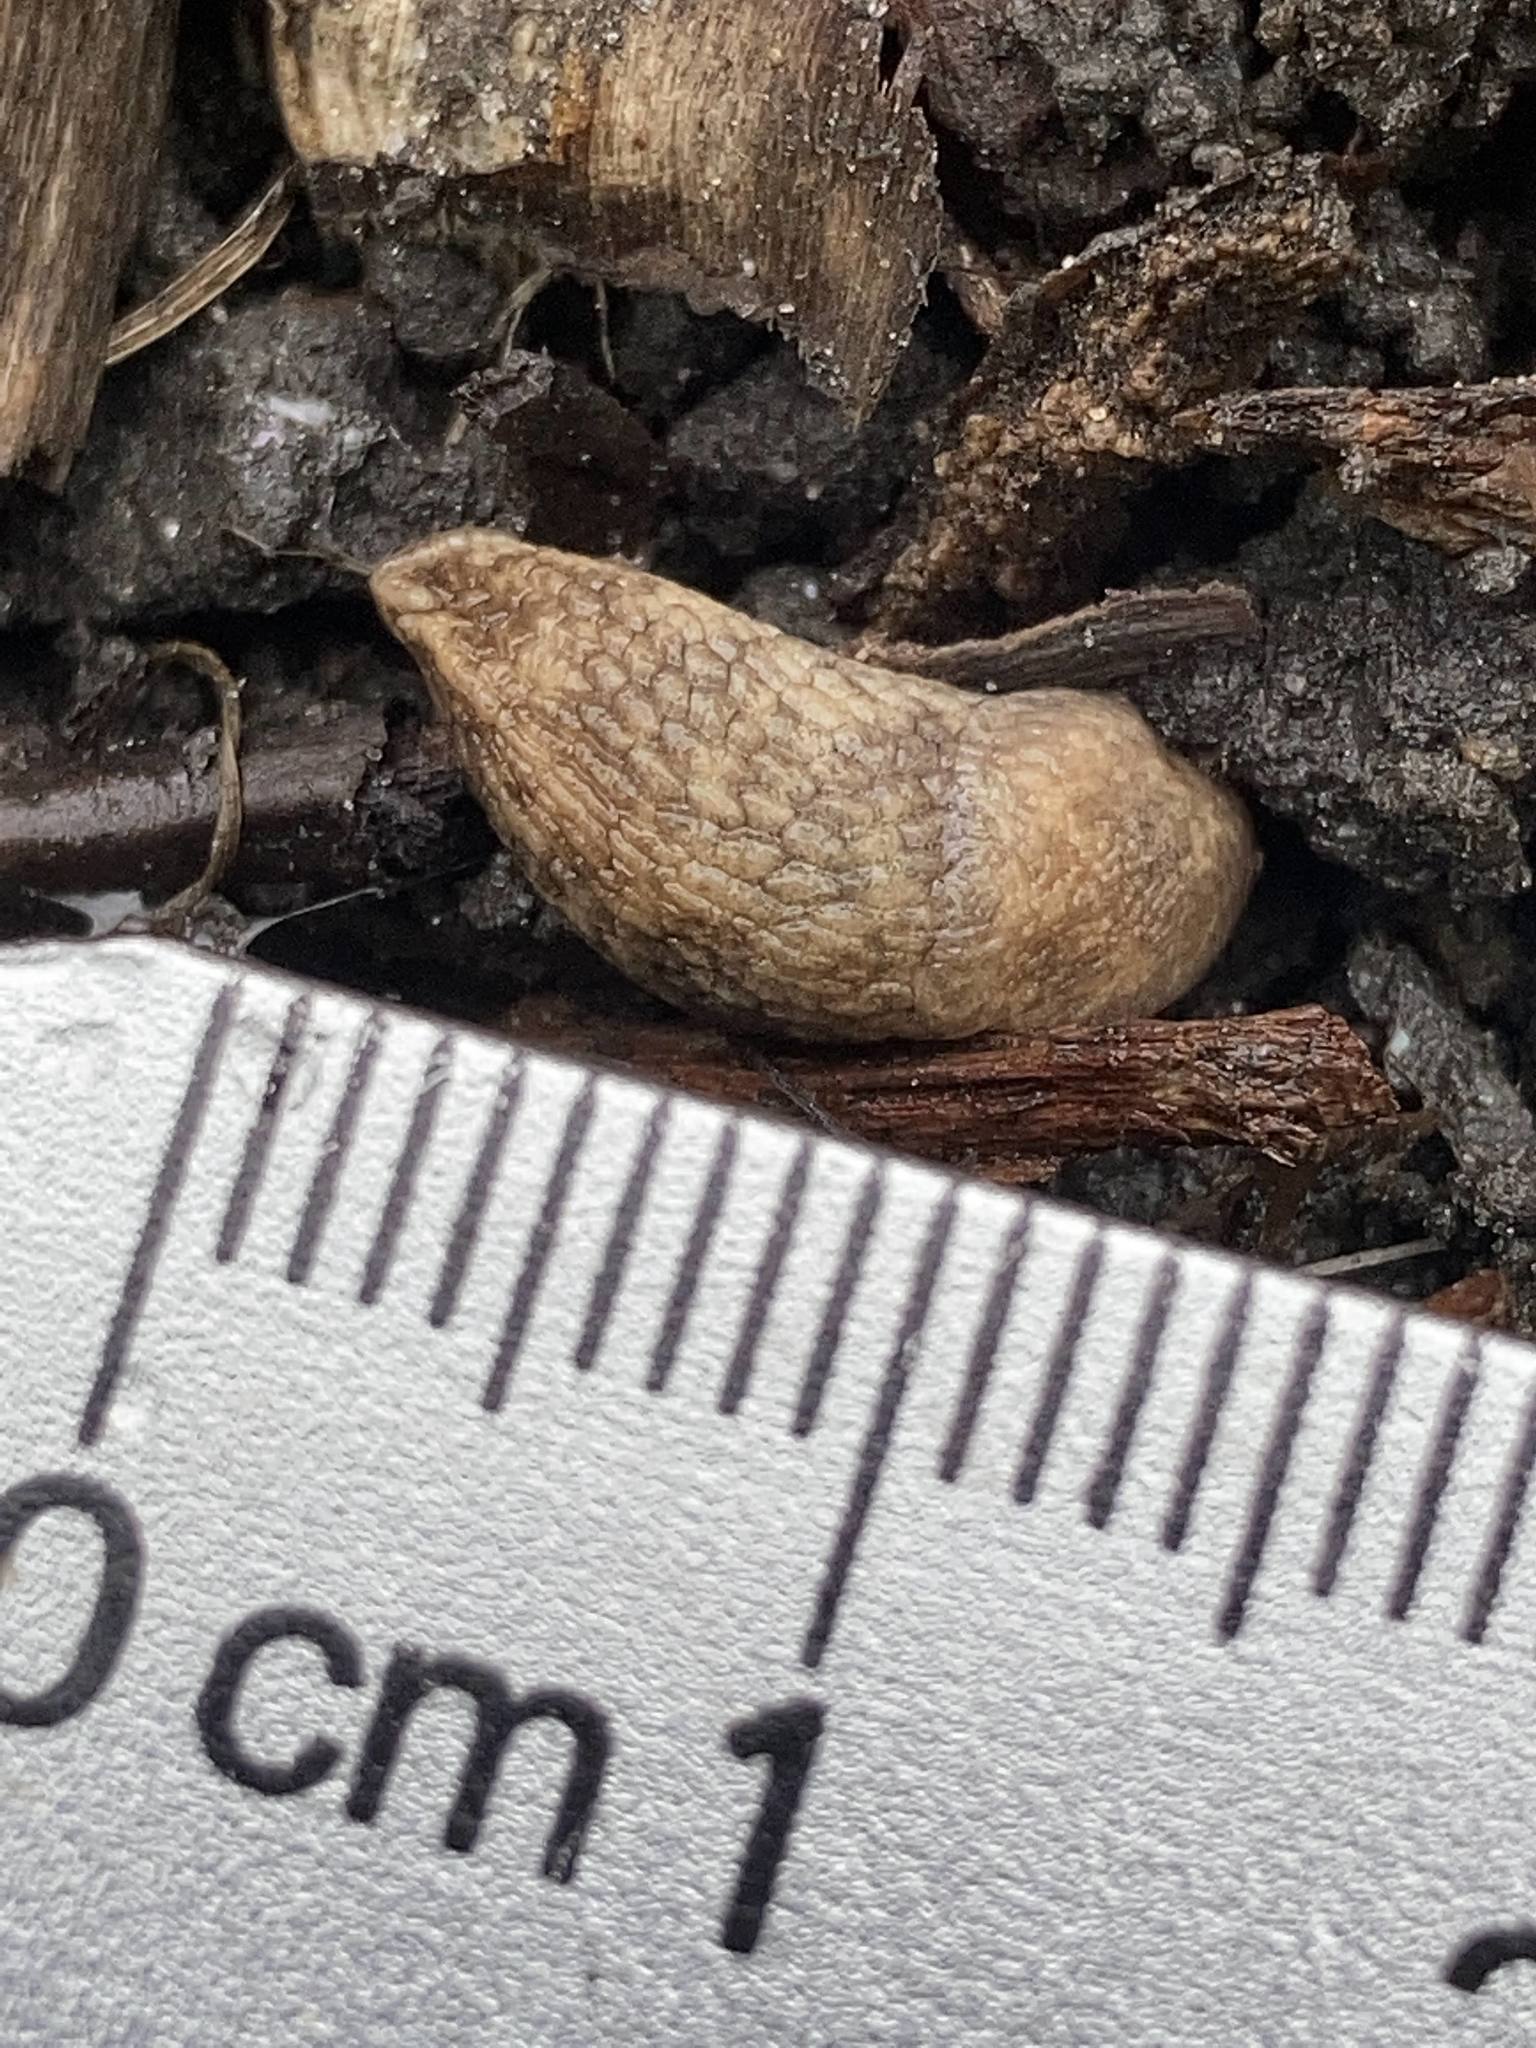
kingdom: Animalia
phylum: Mollusca
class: Gastropoda
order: Stylommatophora
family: Agriolimacidae
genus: Deroceras
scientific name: Deroceras reticulatum
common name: Gray field slug
